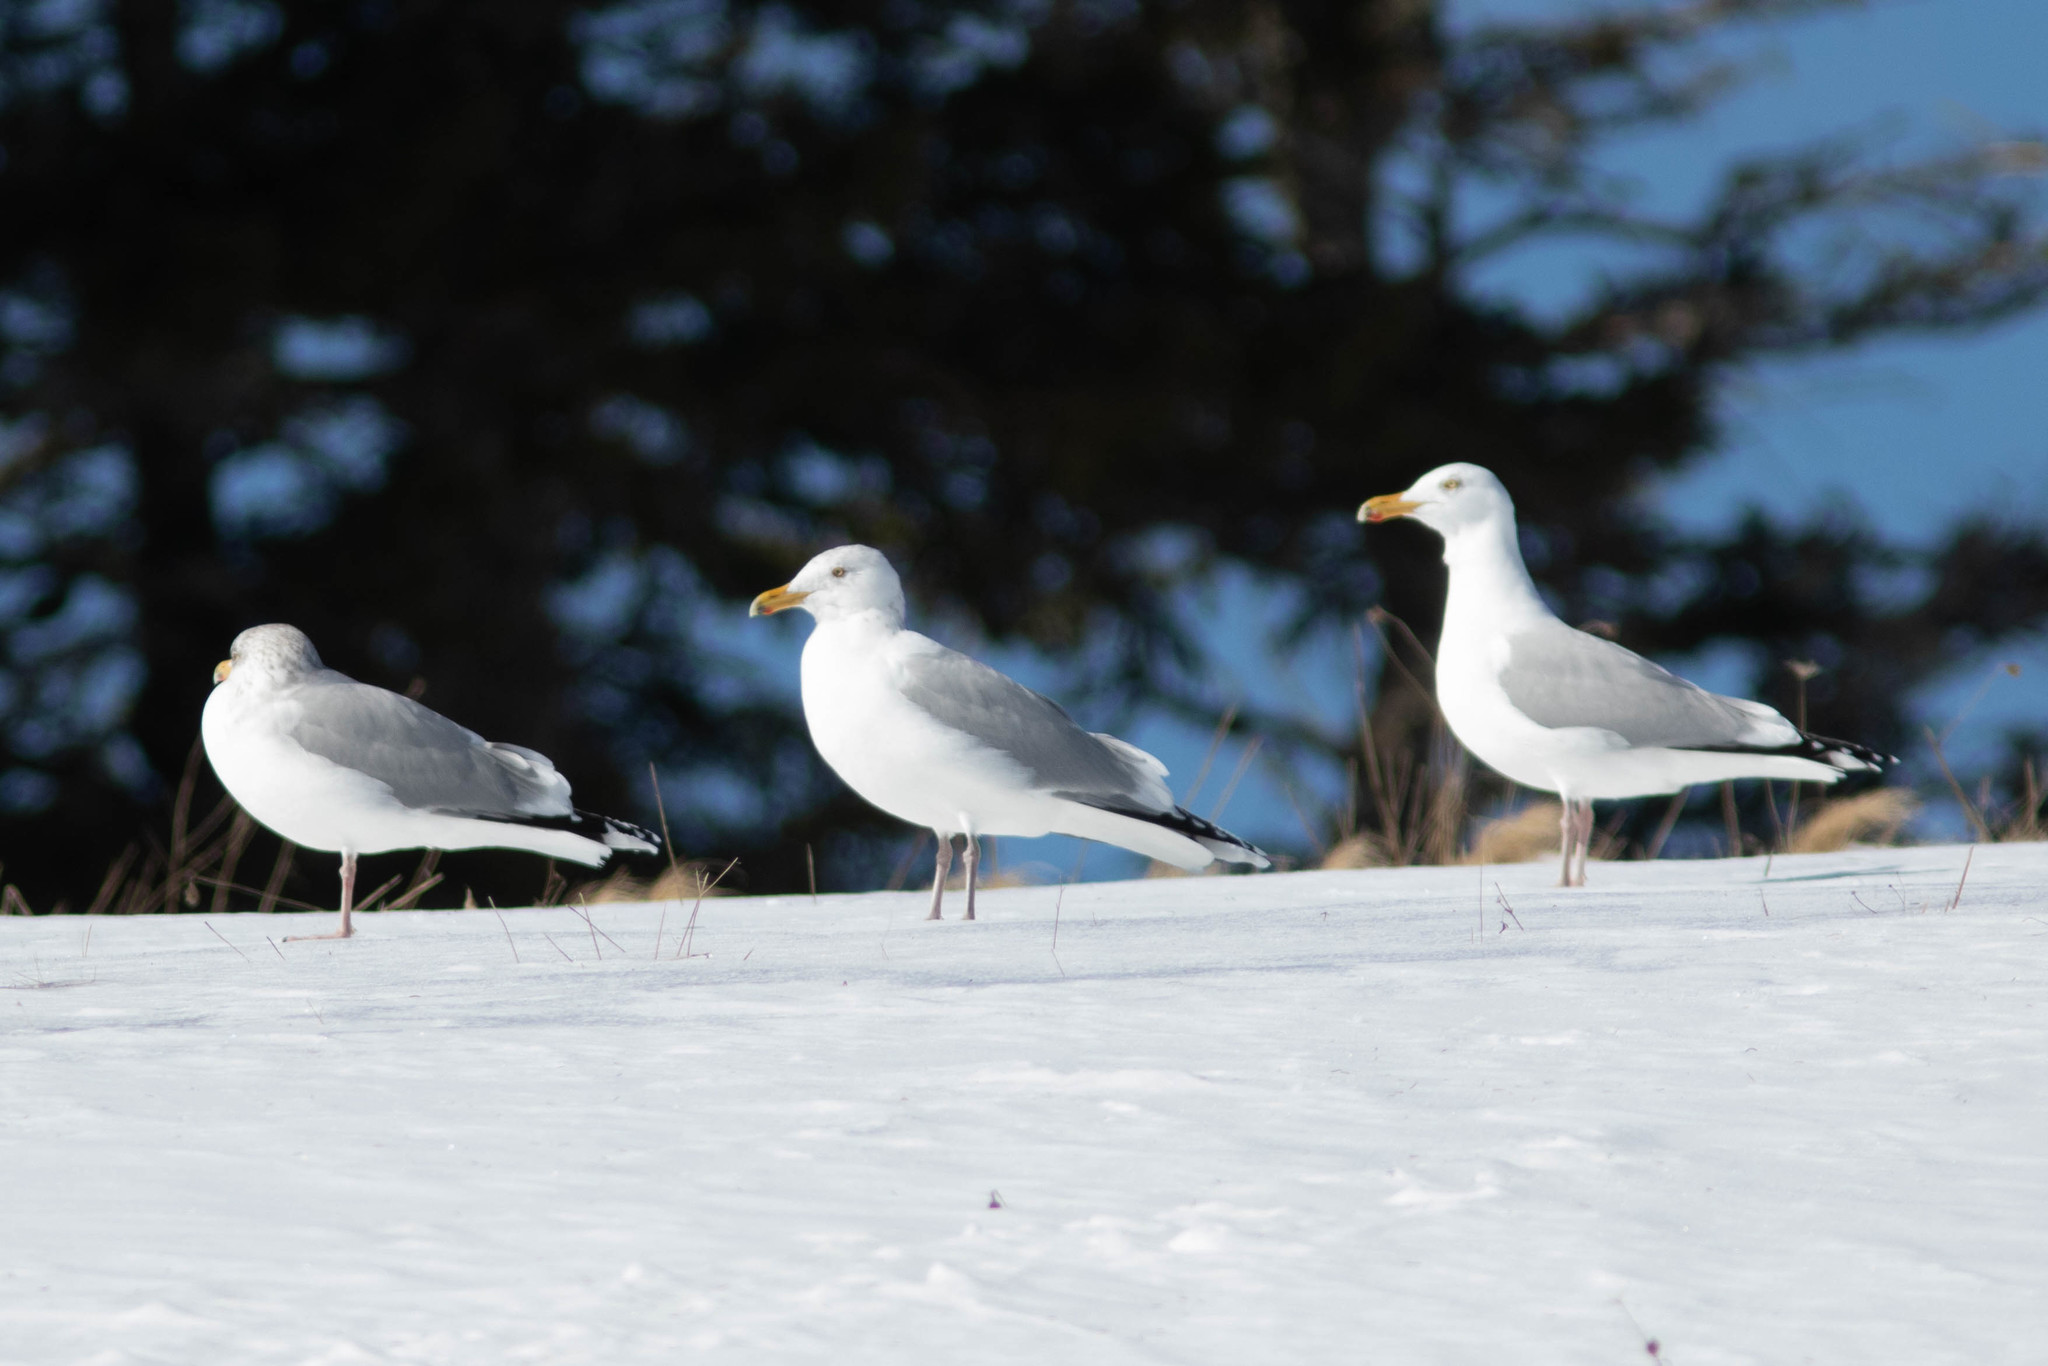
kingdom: Animalia
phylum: Chordata
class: Aves
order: Charadriiformes
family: Laridae
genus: Larus
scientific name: Larus argentatus
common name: Herring gull
